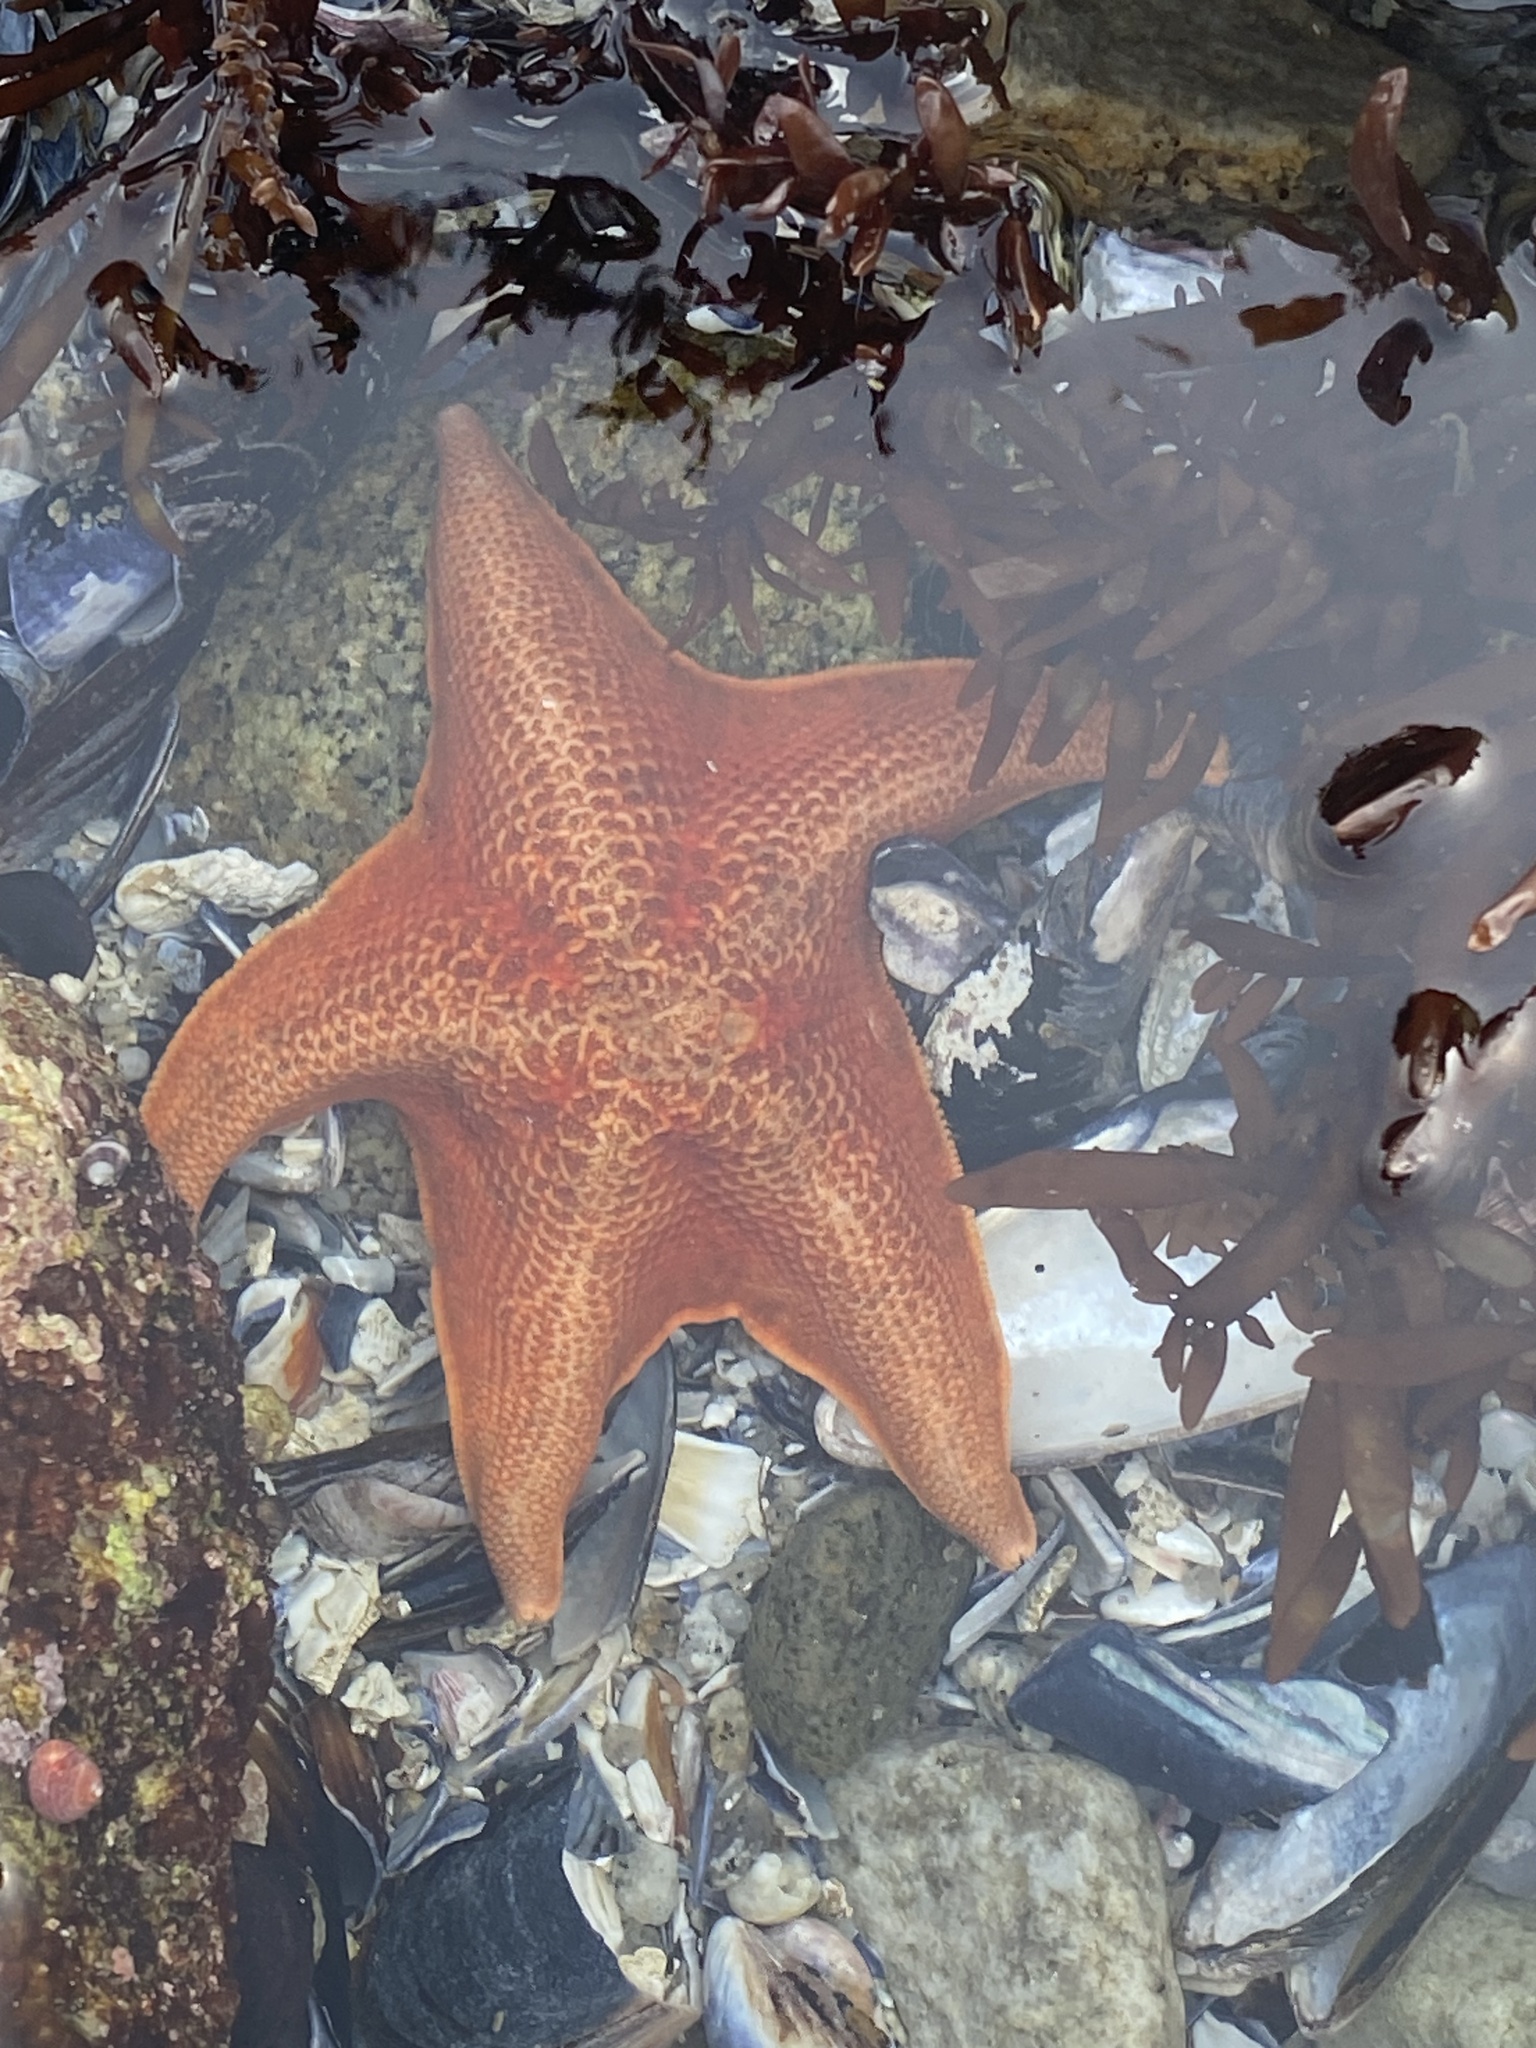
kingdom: Animalia
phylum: Echinodermata
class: Asteroidea
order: Valvatida
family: Asterinidae
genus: Patiria
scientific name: Patiria miniata
